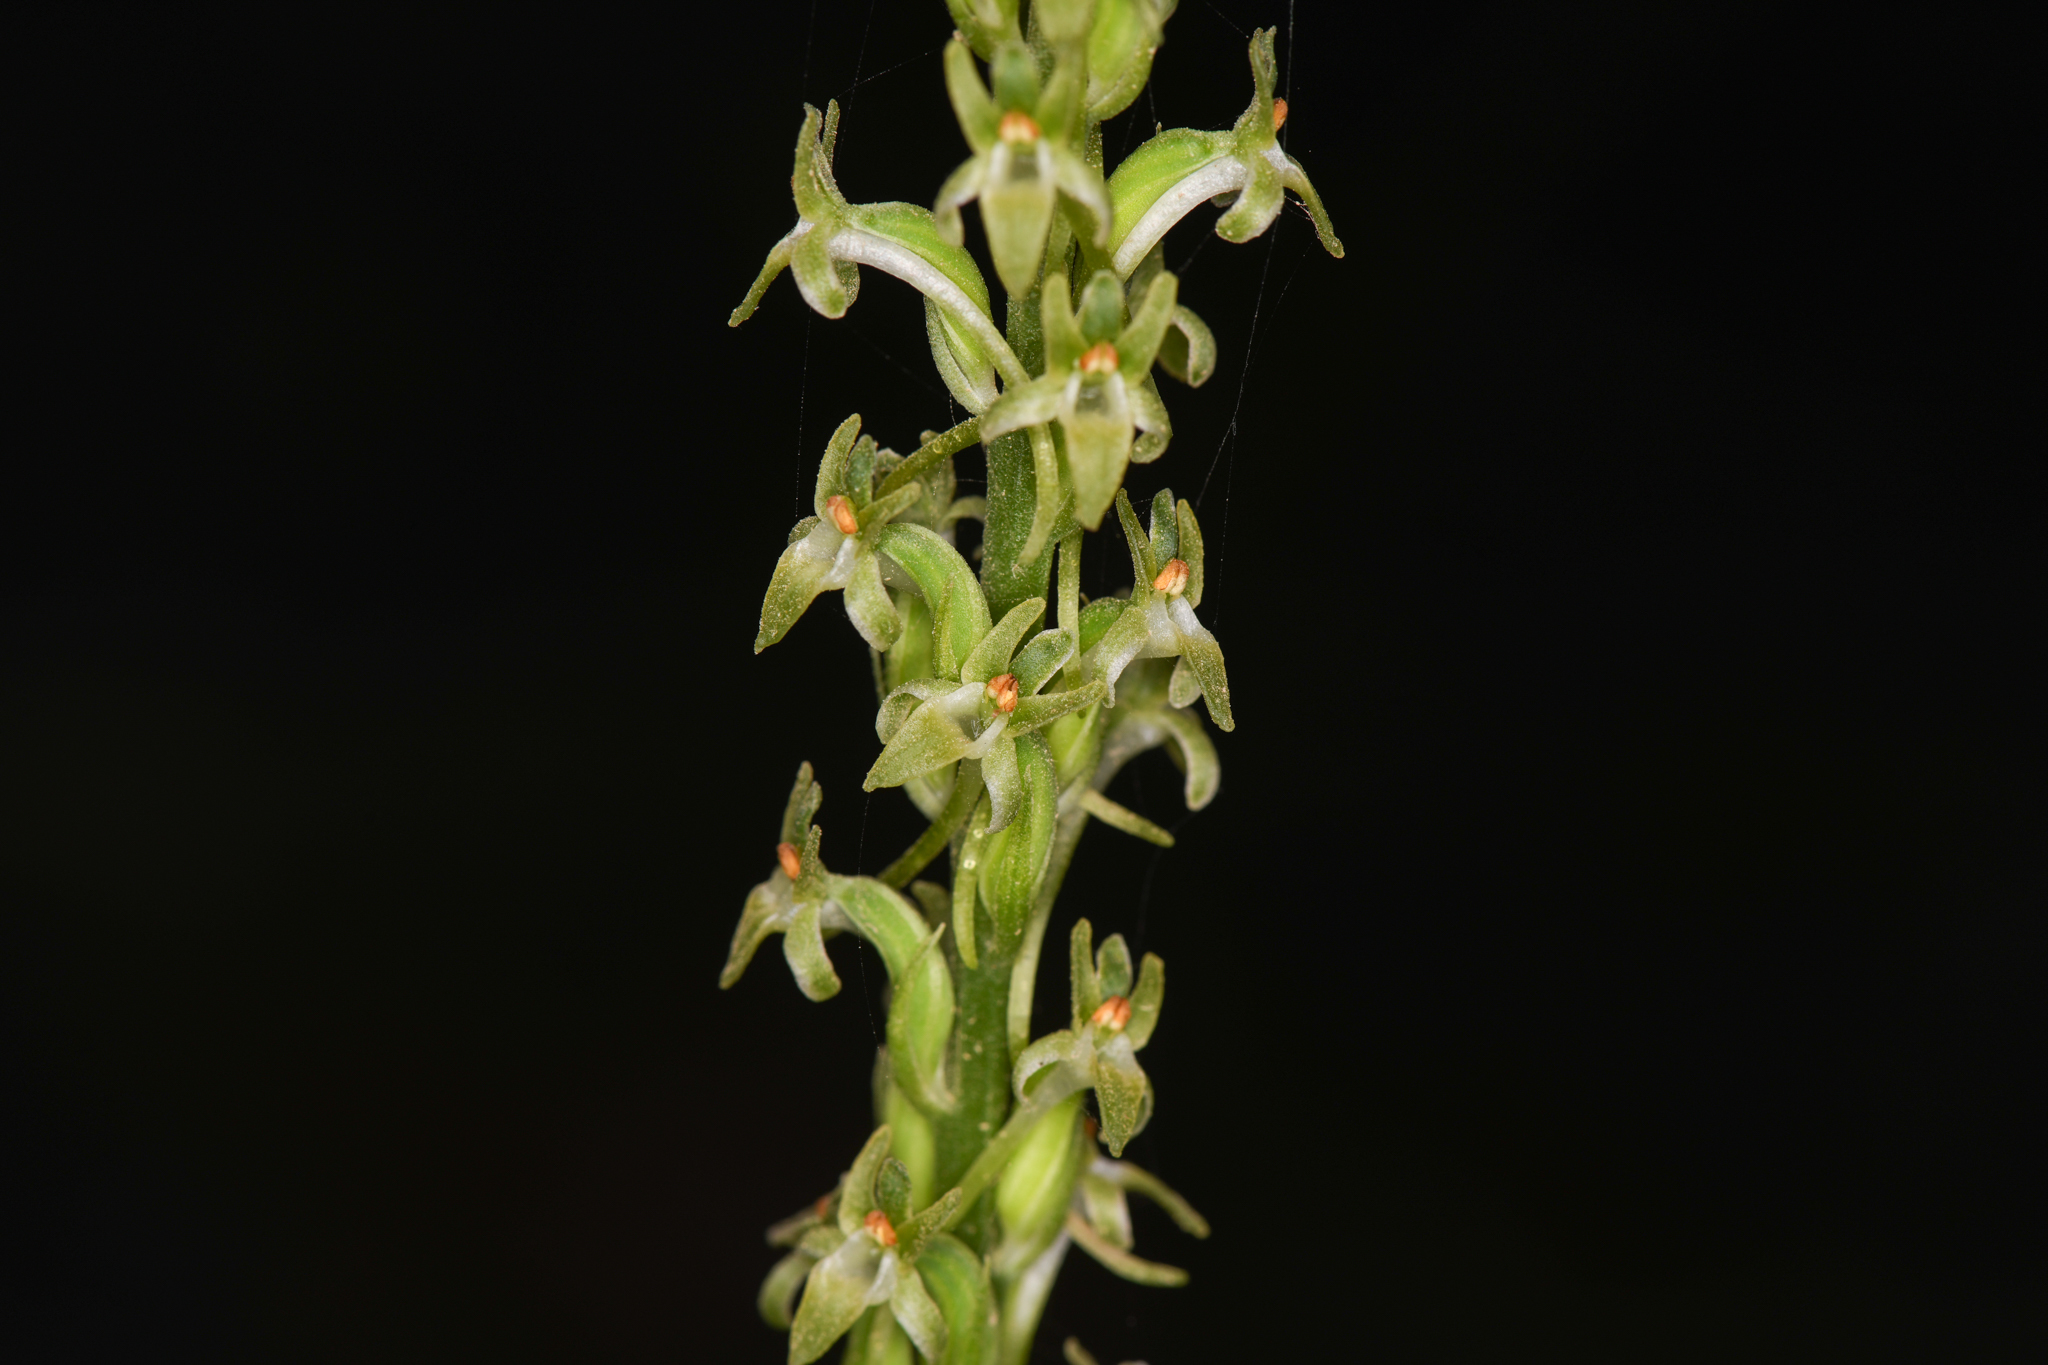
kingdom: Plantae
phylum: Tracheophyta
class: Liliopsida
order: Asparagales
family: Orchidaceae
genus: Platanthera
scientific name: Platanthera elongata
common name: Dense-flowered rein orchid
